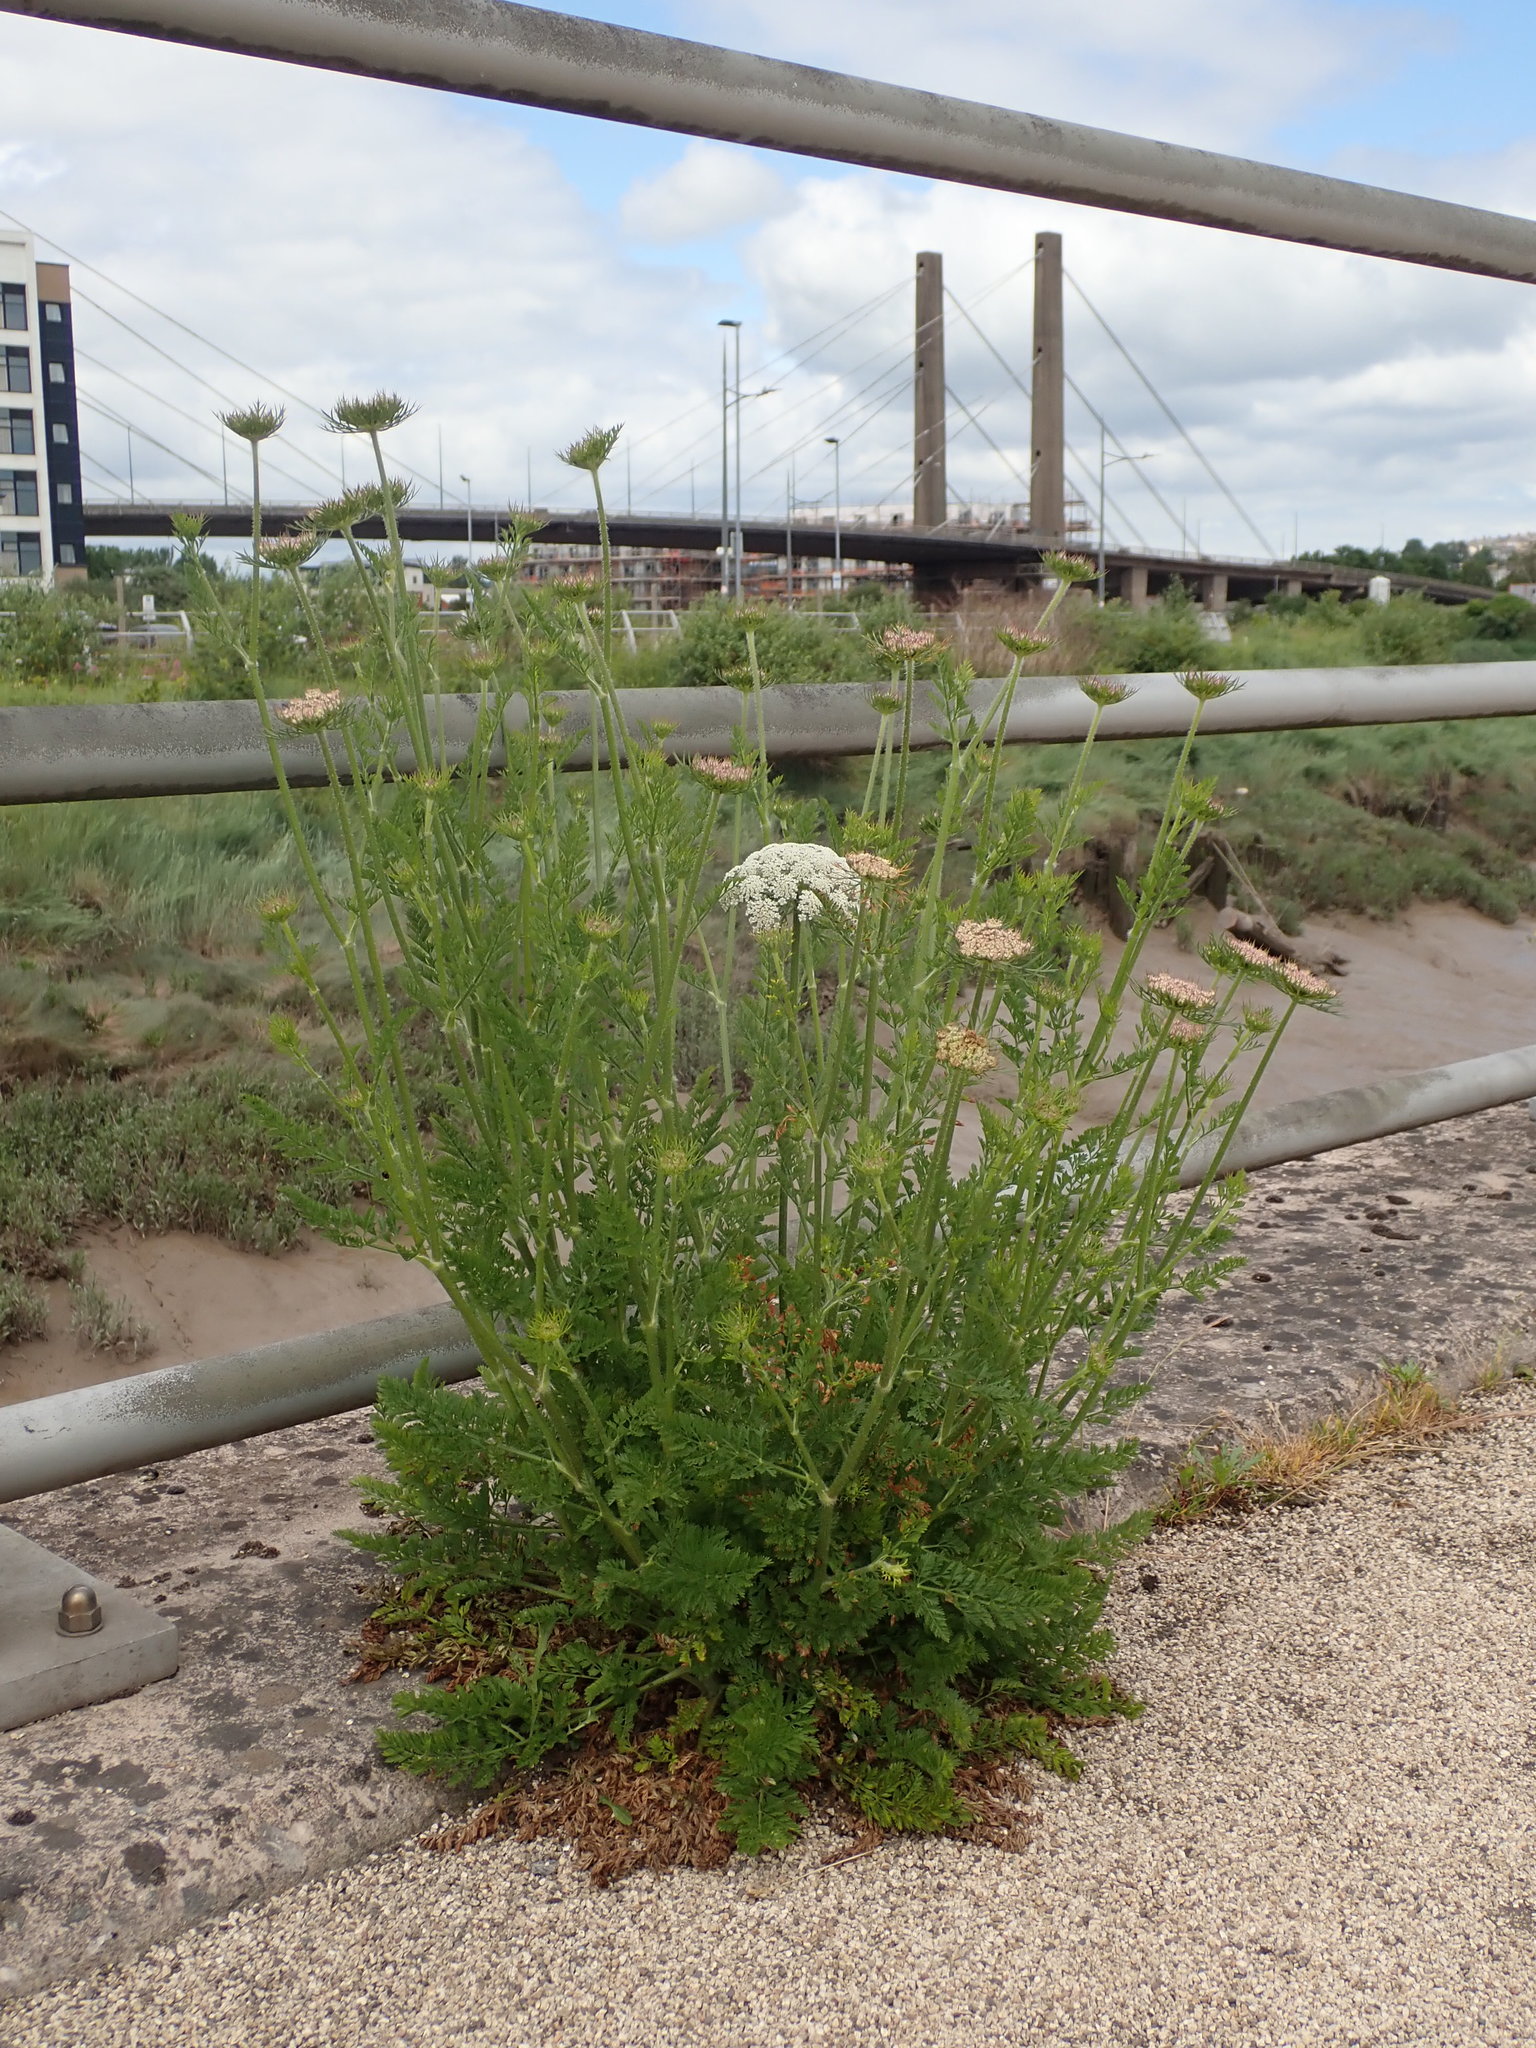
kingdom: Plantae
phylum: Tracheophyta
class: Magnoliopsida
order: Apiales
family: Apiaceae
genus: Daucus
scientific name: Daucus carota
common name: Wild carrot
